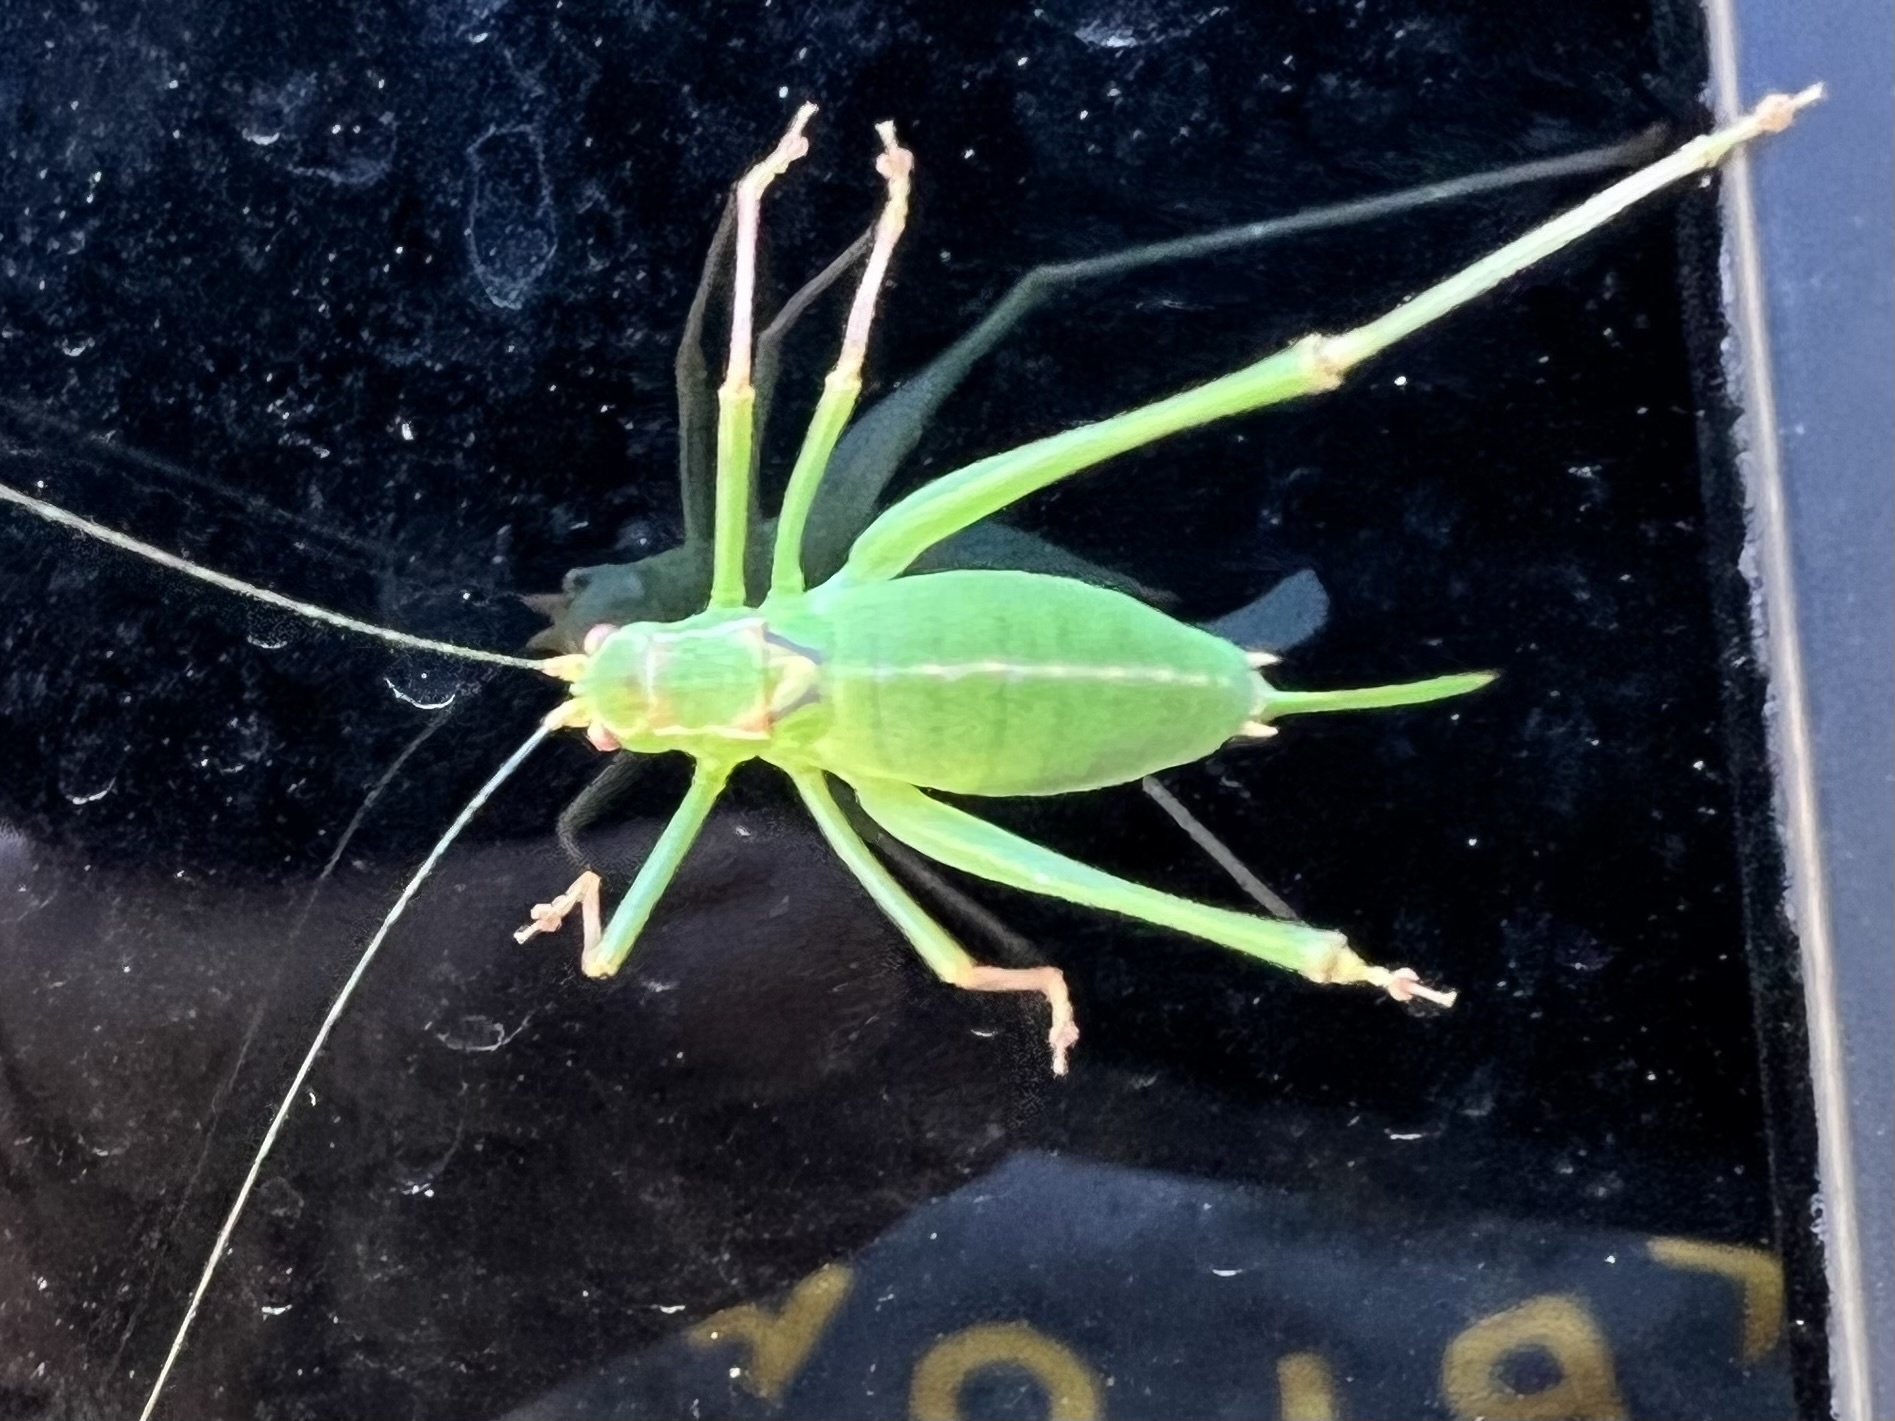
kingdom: Animalia
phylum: Arthropoda
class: Insecta
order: Orthoptera
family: Tettigoniidae
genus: Leptophyes
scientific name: Leptophyes punctatissima
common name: Speckled bush-cricket
